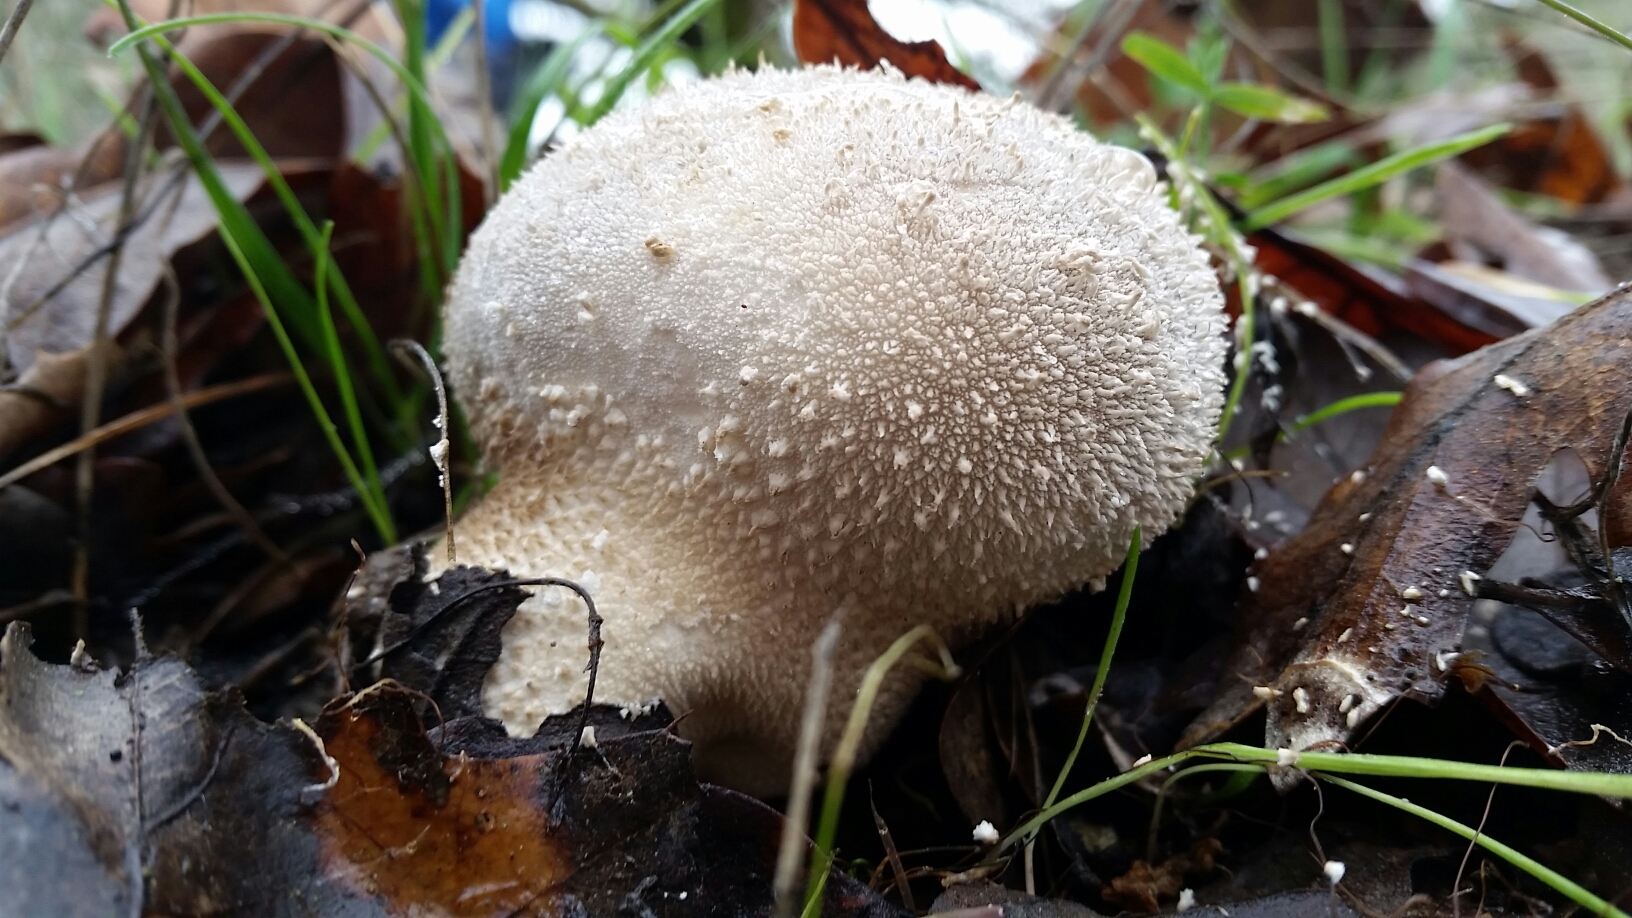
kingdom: Fungi
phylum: Basidiomycota
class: Agaricomycetes
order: Agaricales
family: Lycoperdaceae
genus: Lycoperdon
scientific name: Lycoperdon perlatum
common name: Common puffball
